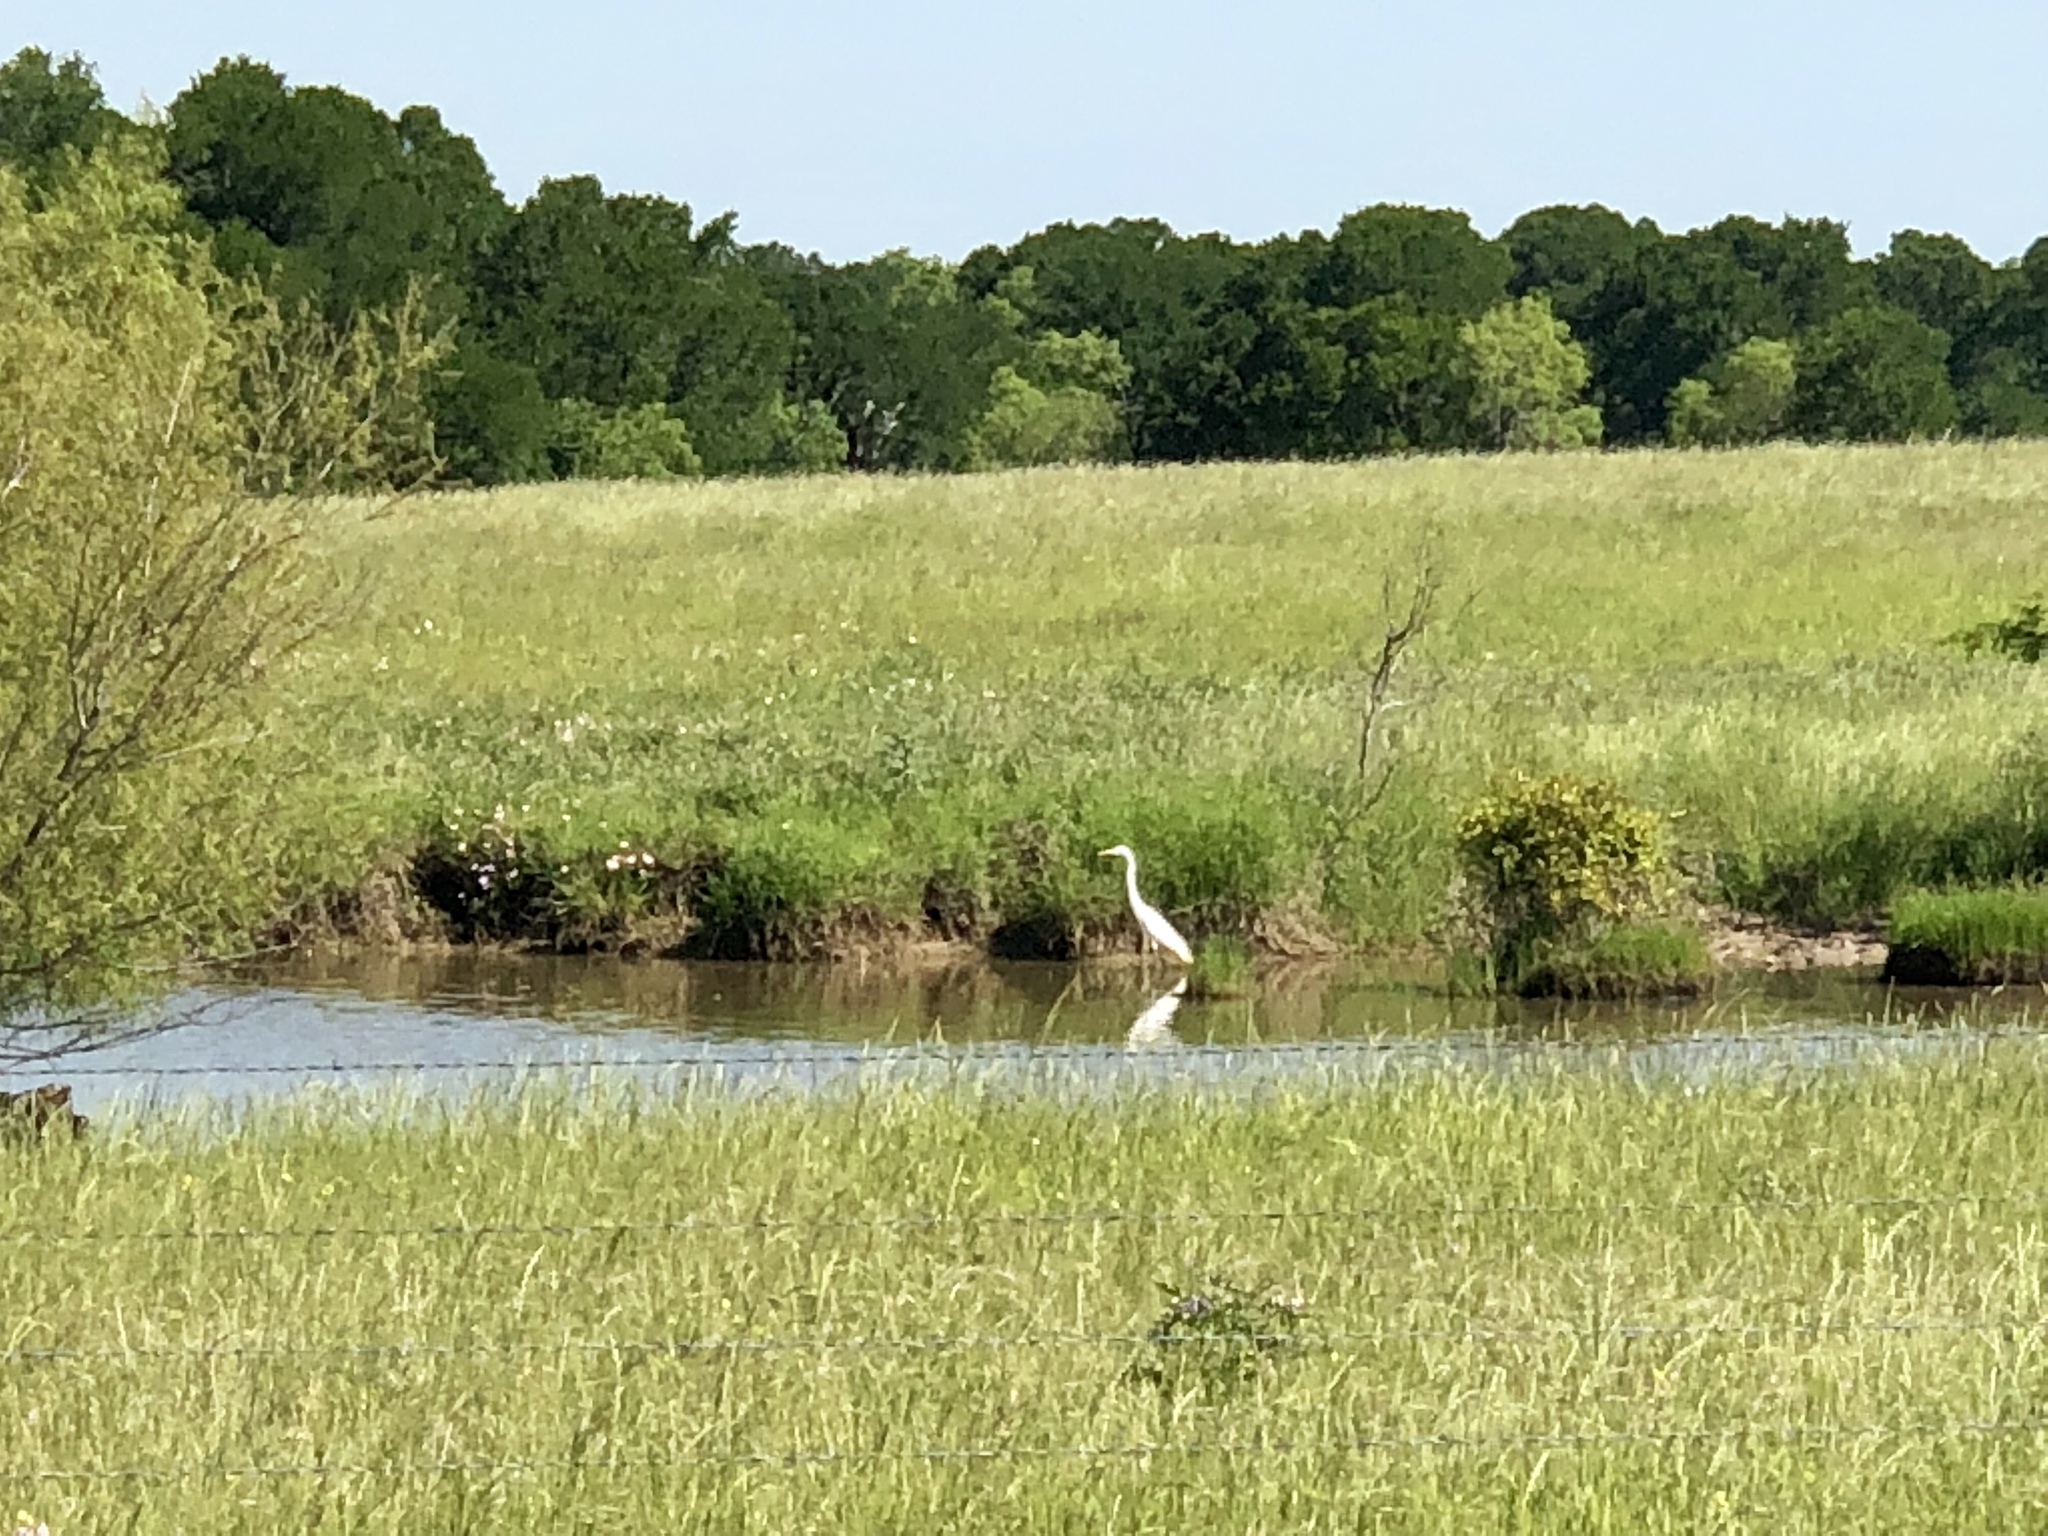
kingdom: Animalia
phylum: Chordata
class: Aves
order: Pelecaniformes
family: Ardeidae
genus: Ardea
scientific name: Ardea alba
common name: Great egret
